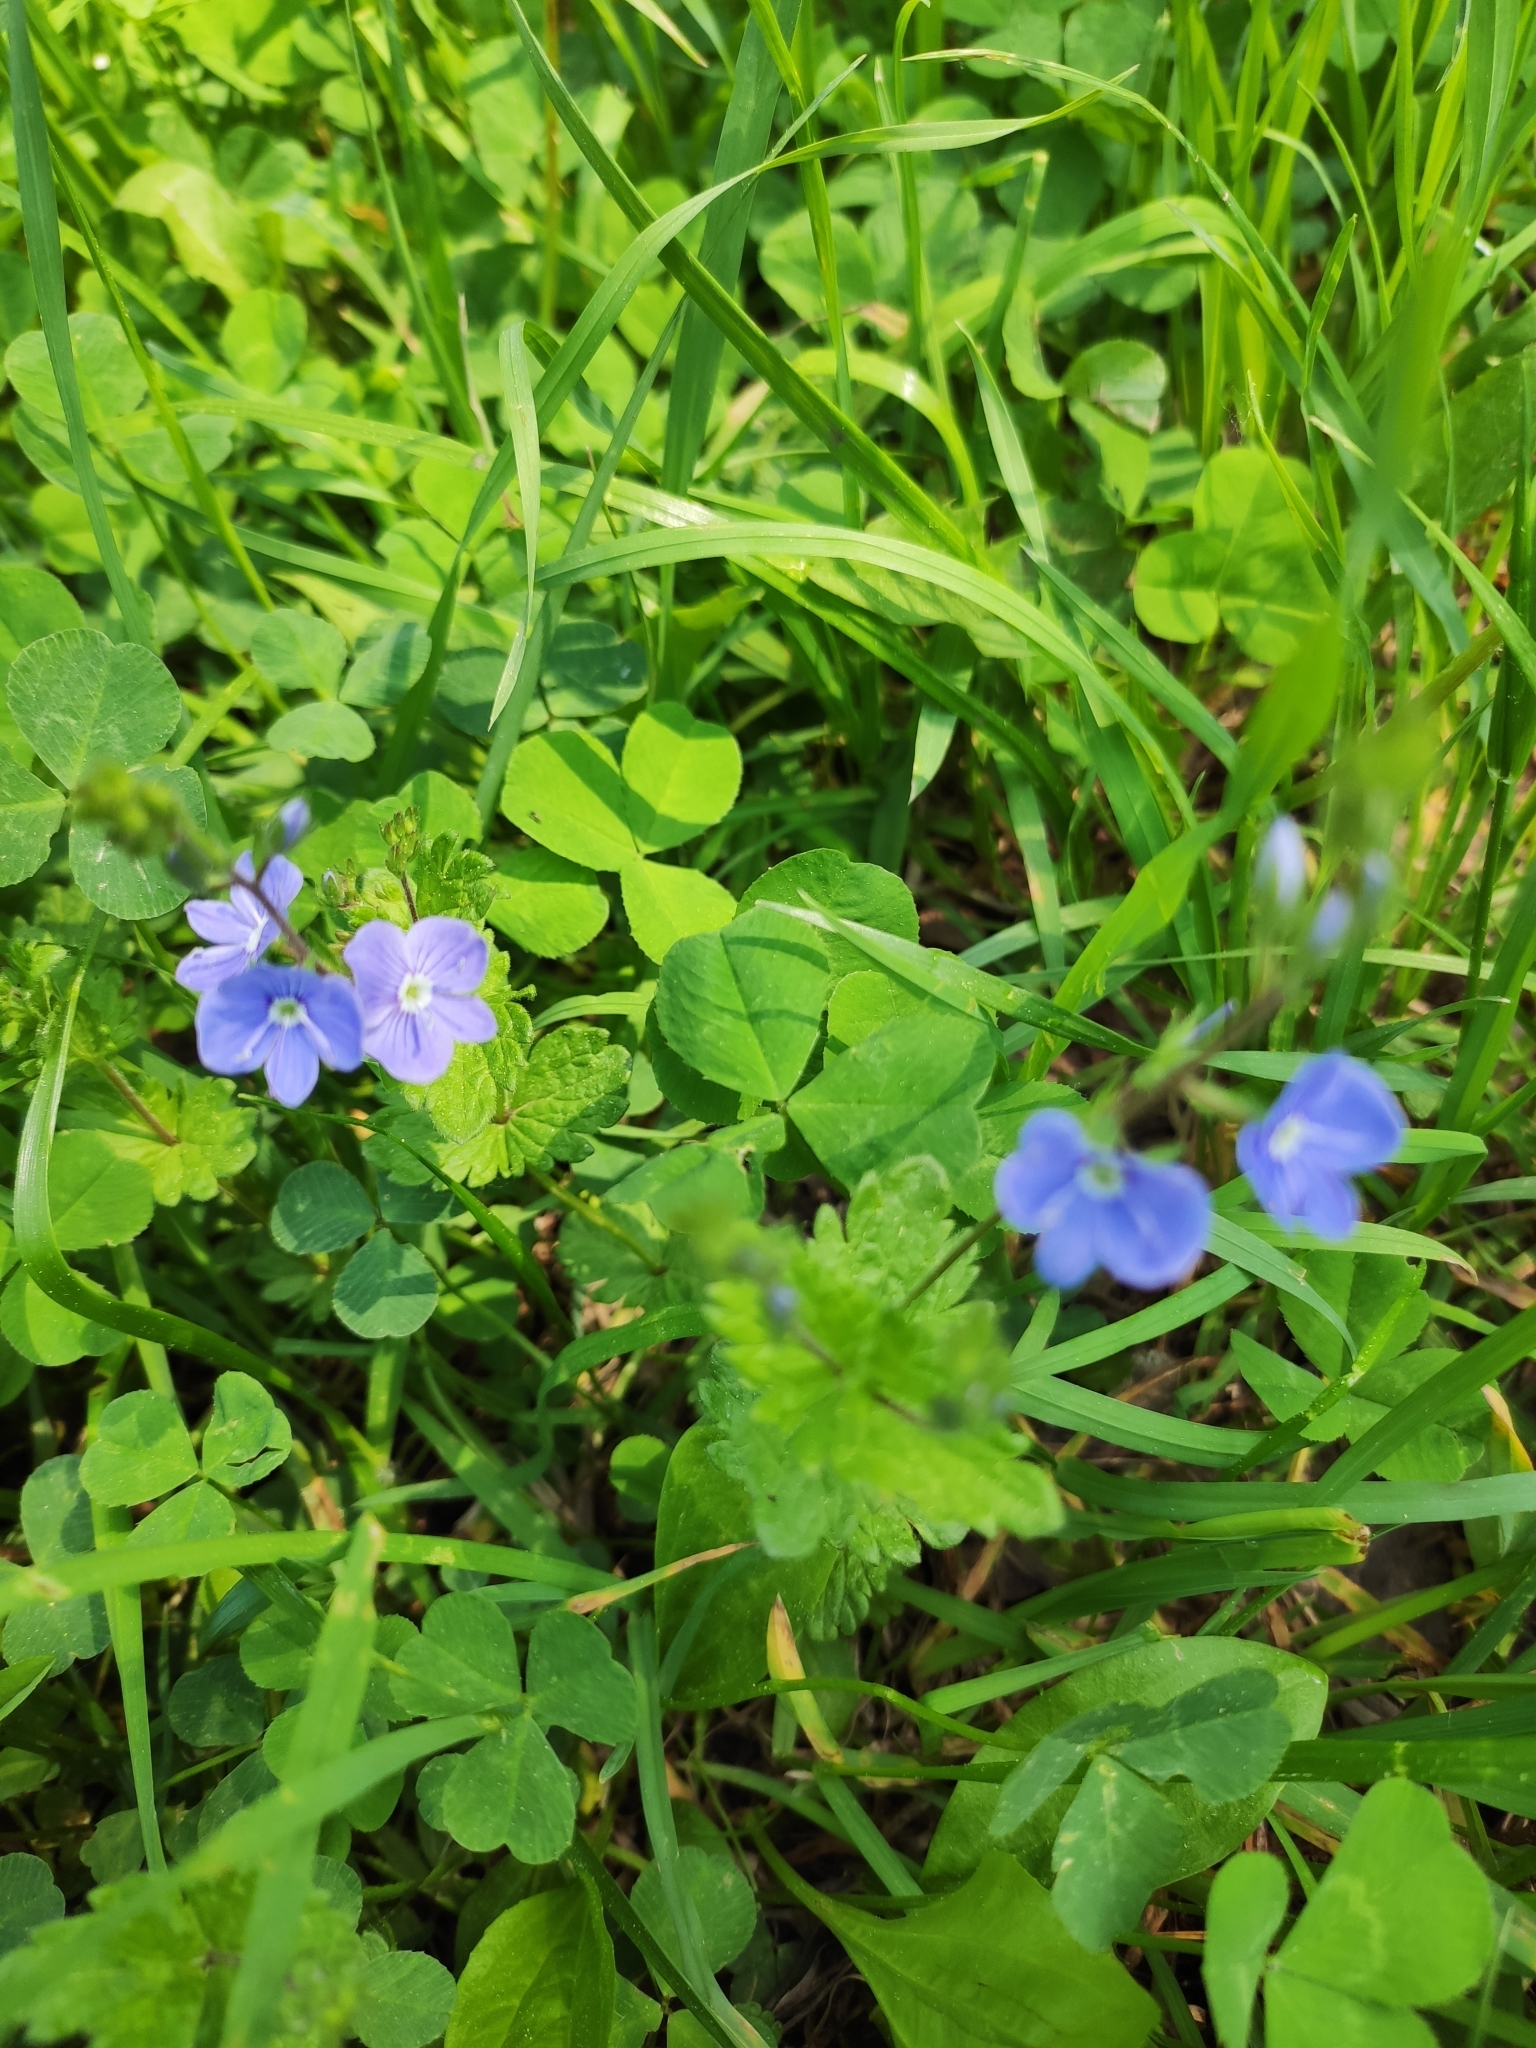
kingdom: Plantae
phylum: Tracheophyta
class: Magnoliopsida
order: Lamiales
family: Plantaginaceae
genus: Veronica
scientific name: Veronica chamaedrys
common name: Germander speedwell
